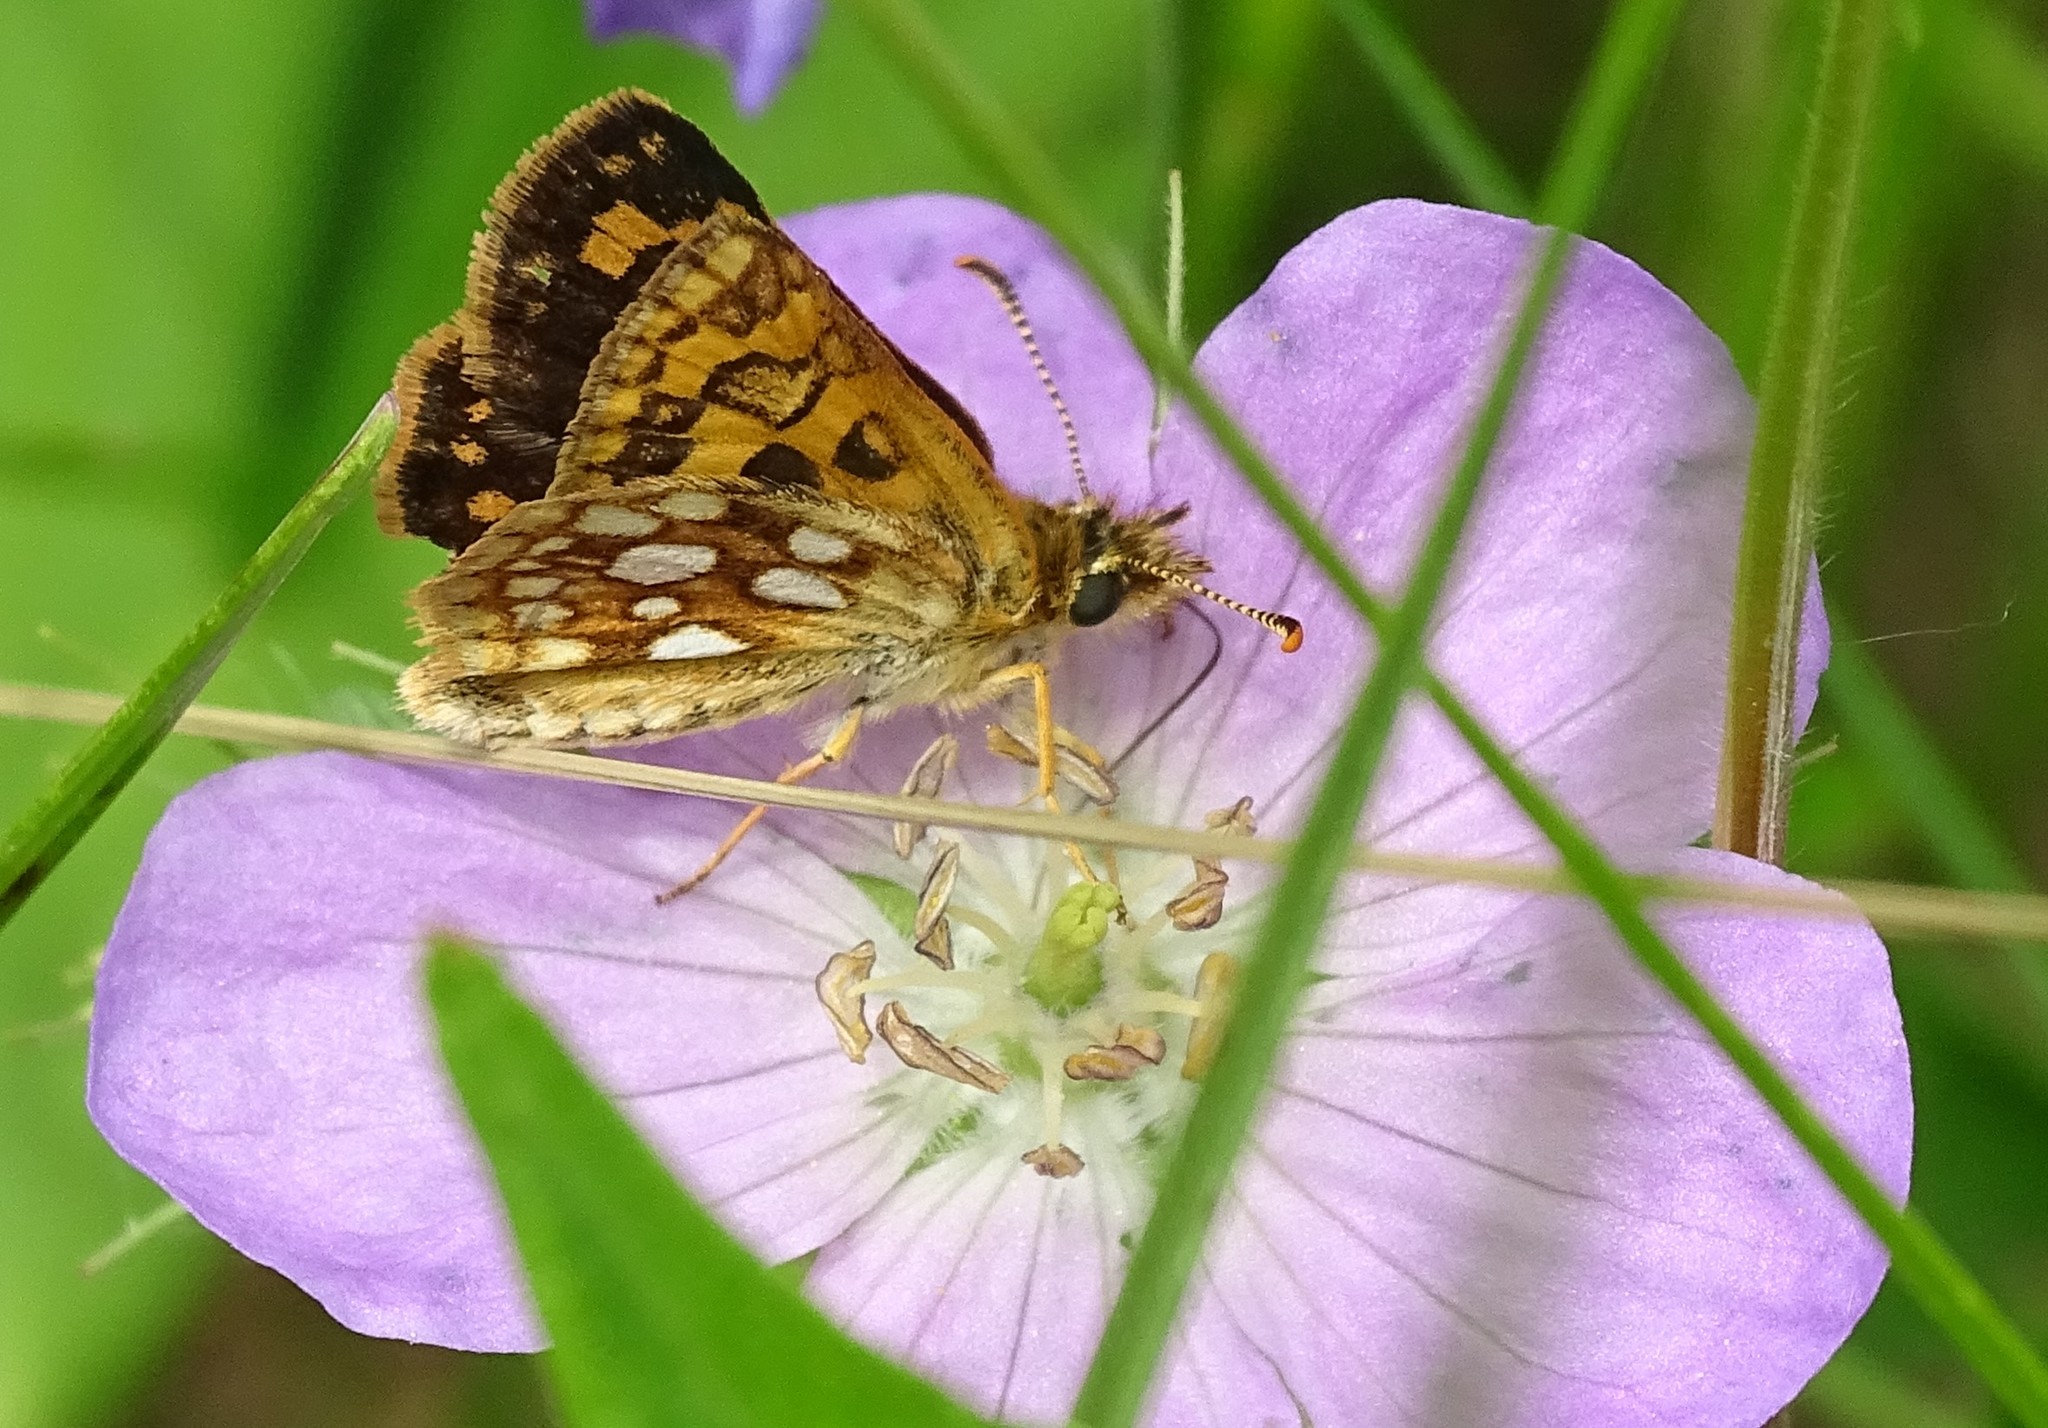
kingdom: Animalia
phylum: Arthropoda
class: Insecta
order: Lepidoptera
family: Hesperiidae
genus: Carterocephalus
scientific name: Carterocephalus mandan
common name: Arctic skipperling
